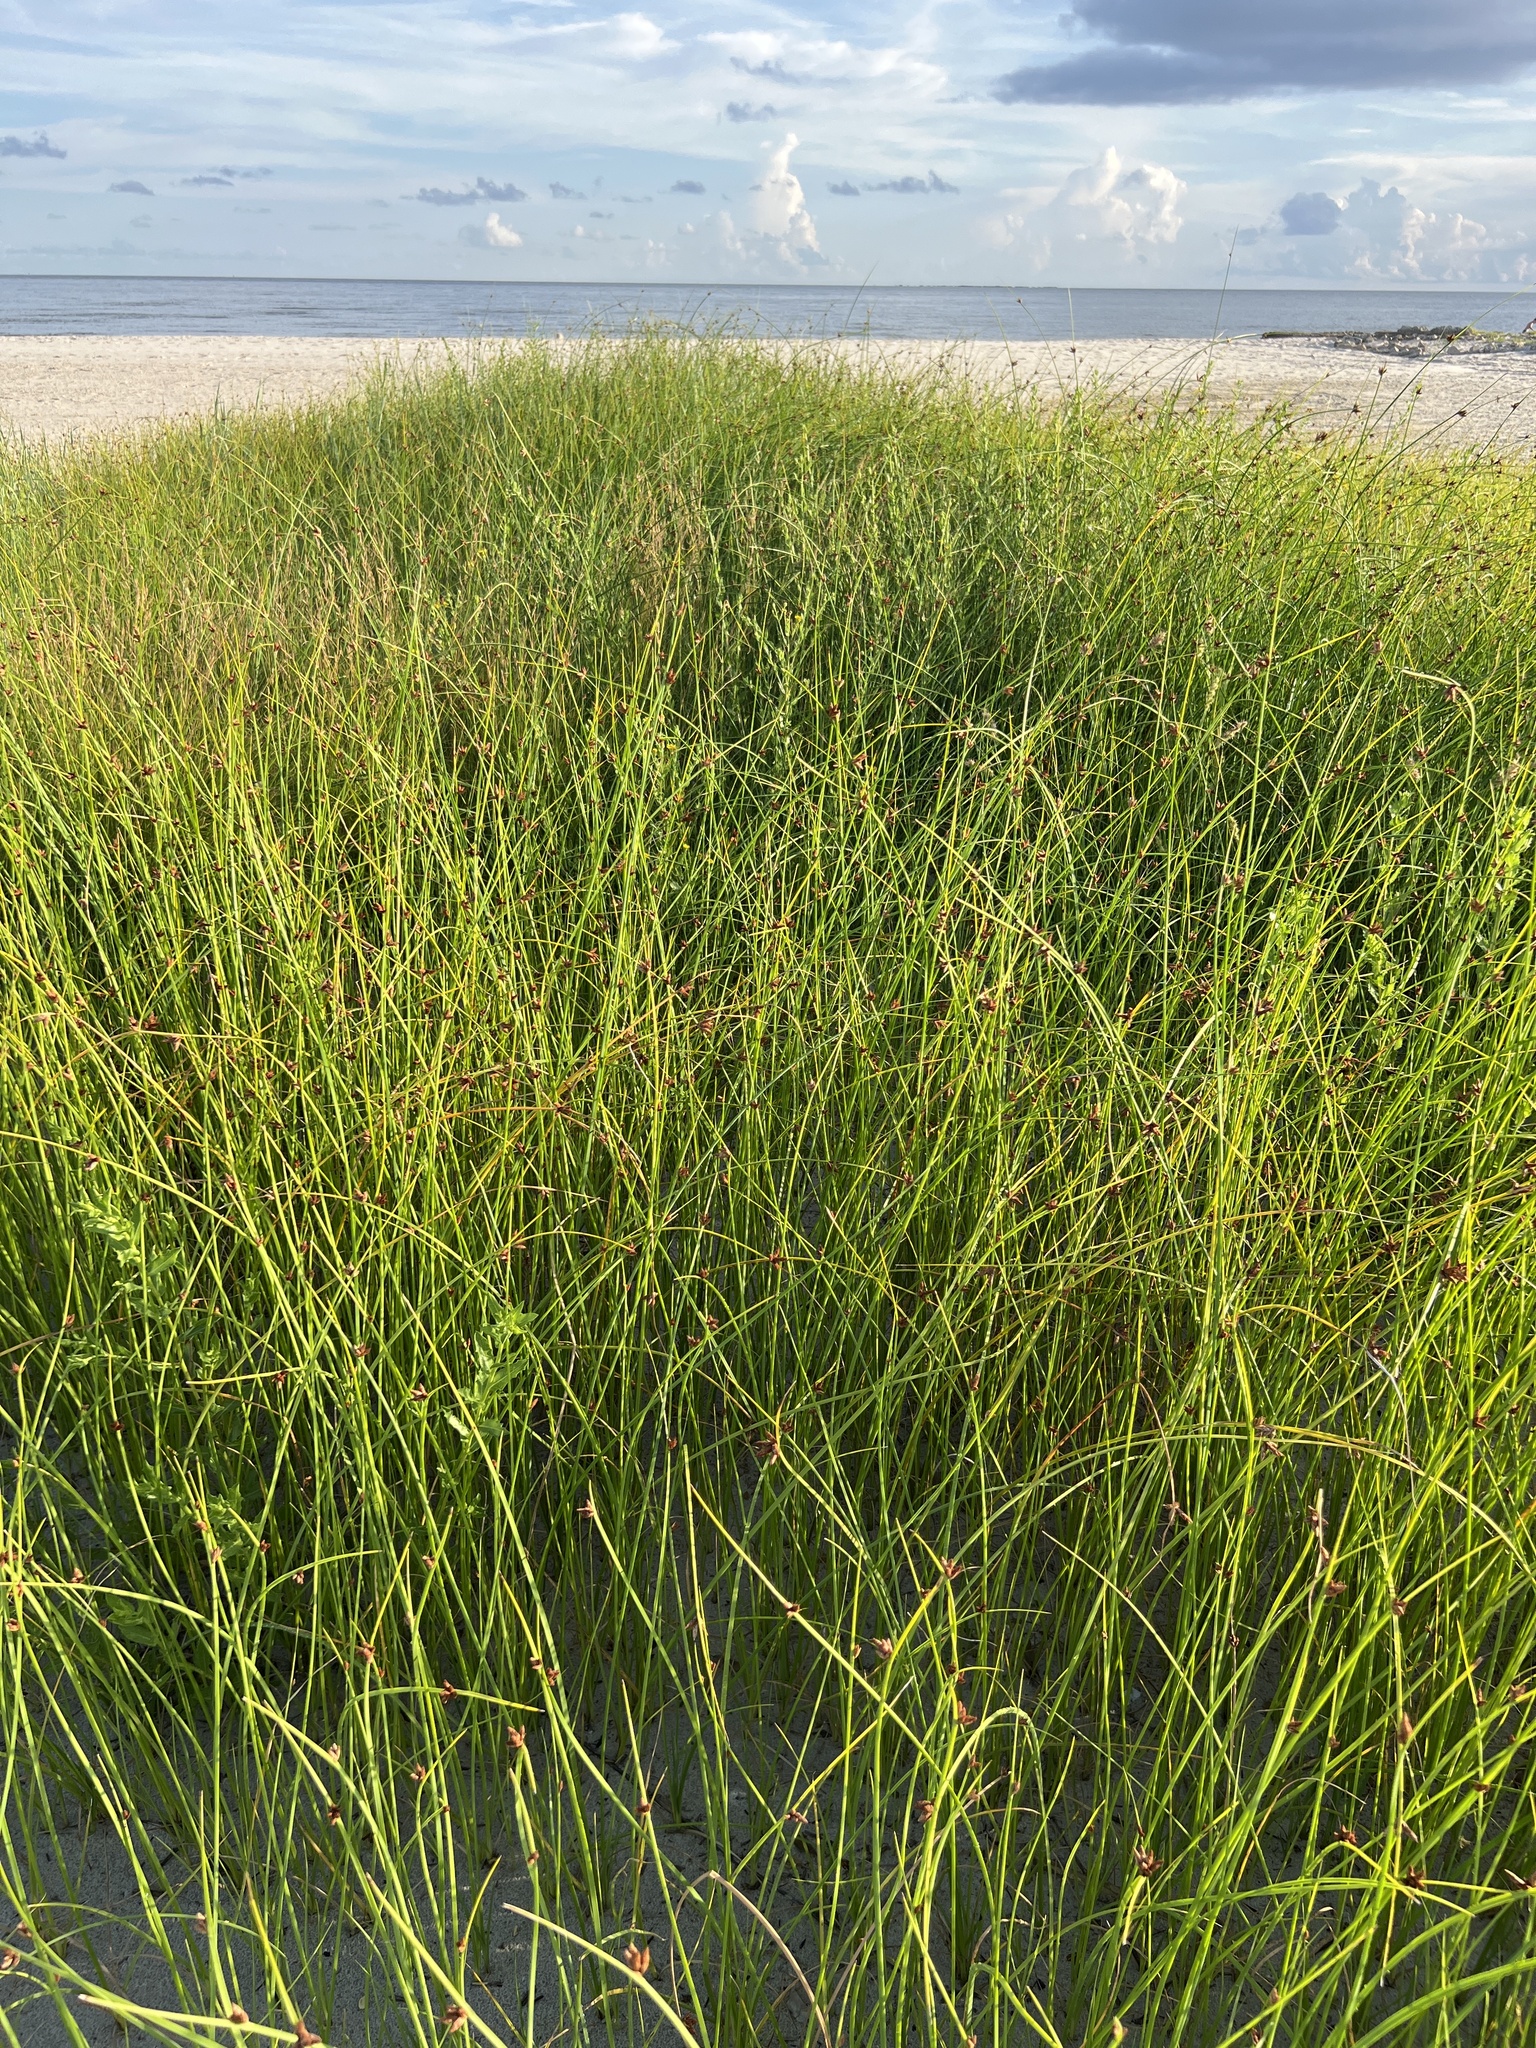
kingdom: Plantae
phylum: Tracheophyta
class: Liliopsida
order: Poales
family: Cyperaceae
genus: Schoenoplectus
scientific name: Schoenoplectus pungens
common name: Sharp club-rush
